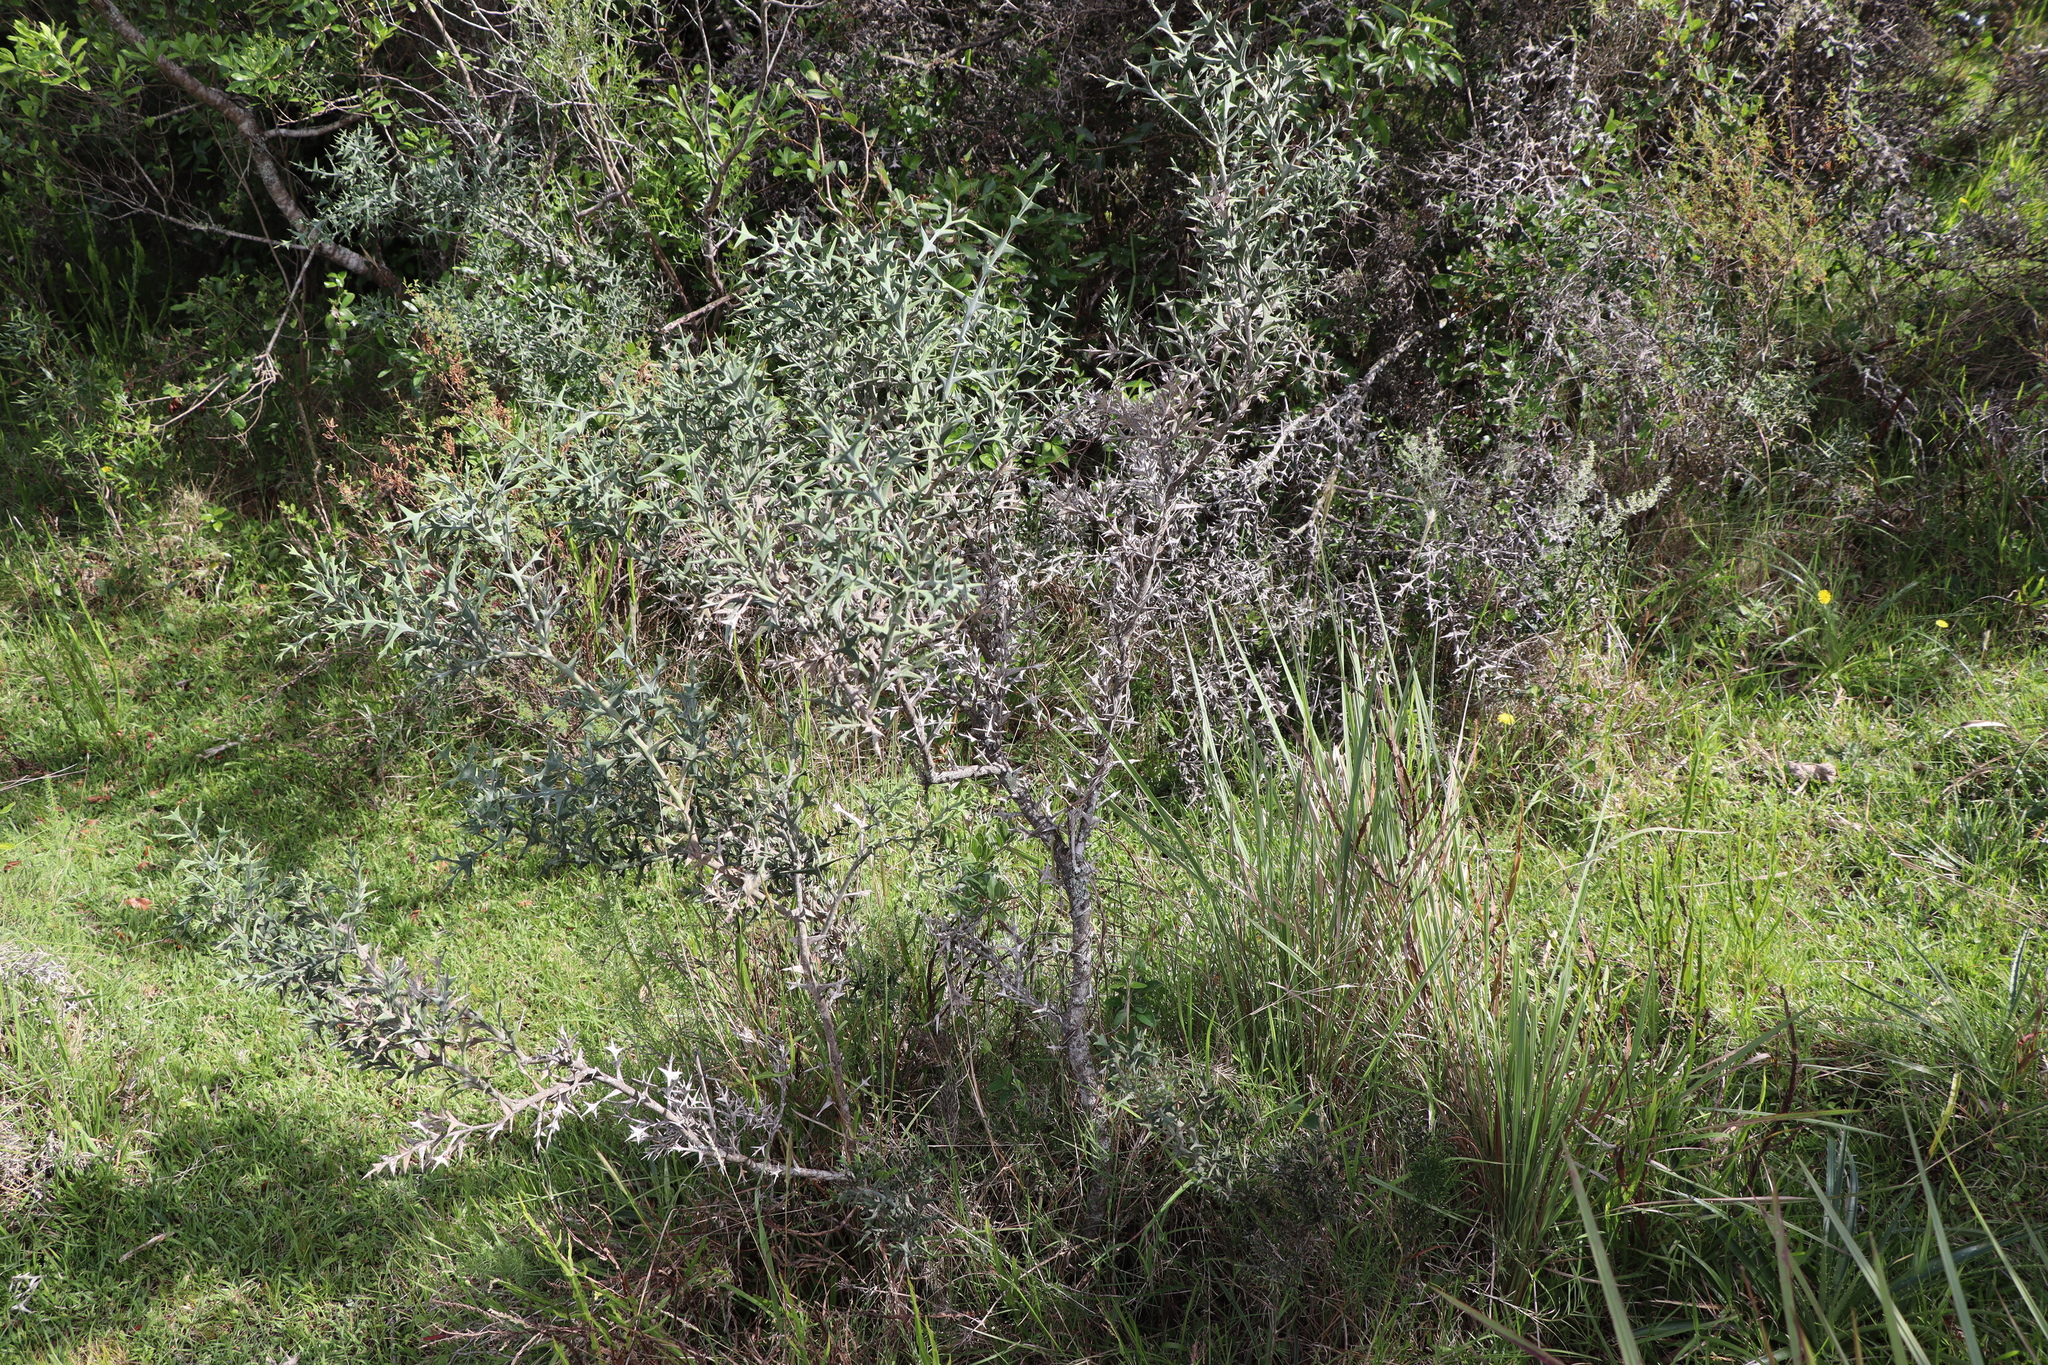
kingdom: Plantae
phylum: Tracheophyta
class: Magnoliopsida
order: Rosales
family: Rhamnaceae
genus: Colletia
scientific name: Colletia paradoxa
